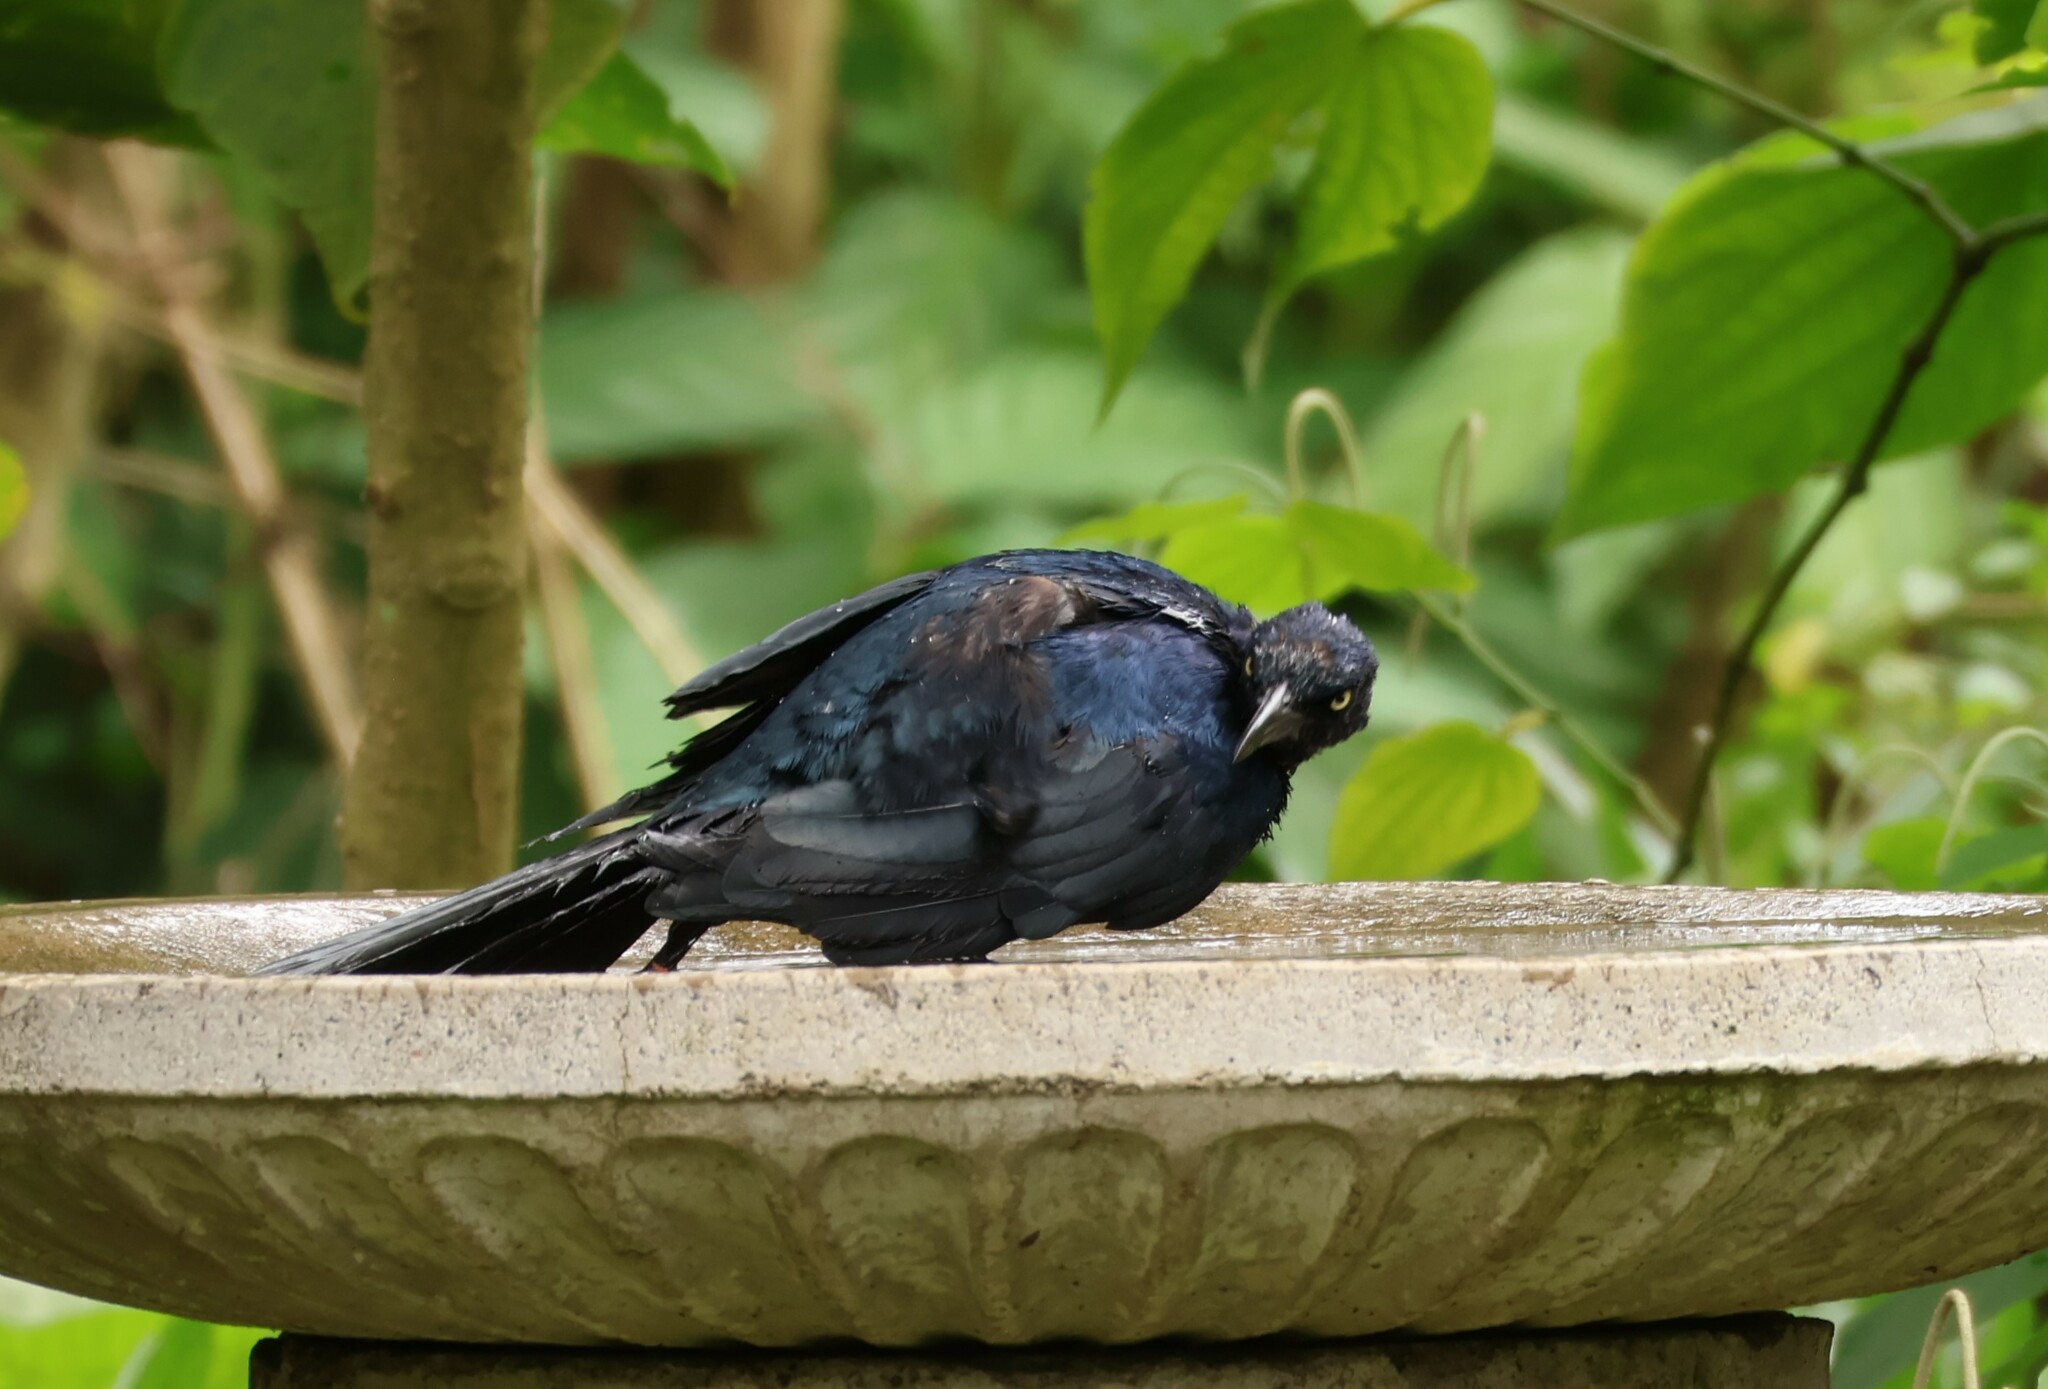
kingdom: Animalia
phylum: Chordata
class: Aves
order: Passeriformes
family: Icteridae
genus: Quiscalus
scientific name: Quiscalus mexicanus
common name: Great-tailed grackle
